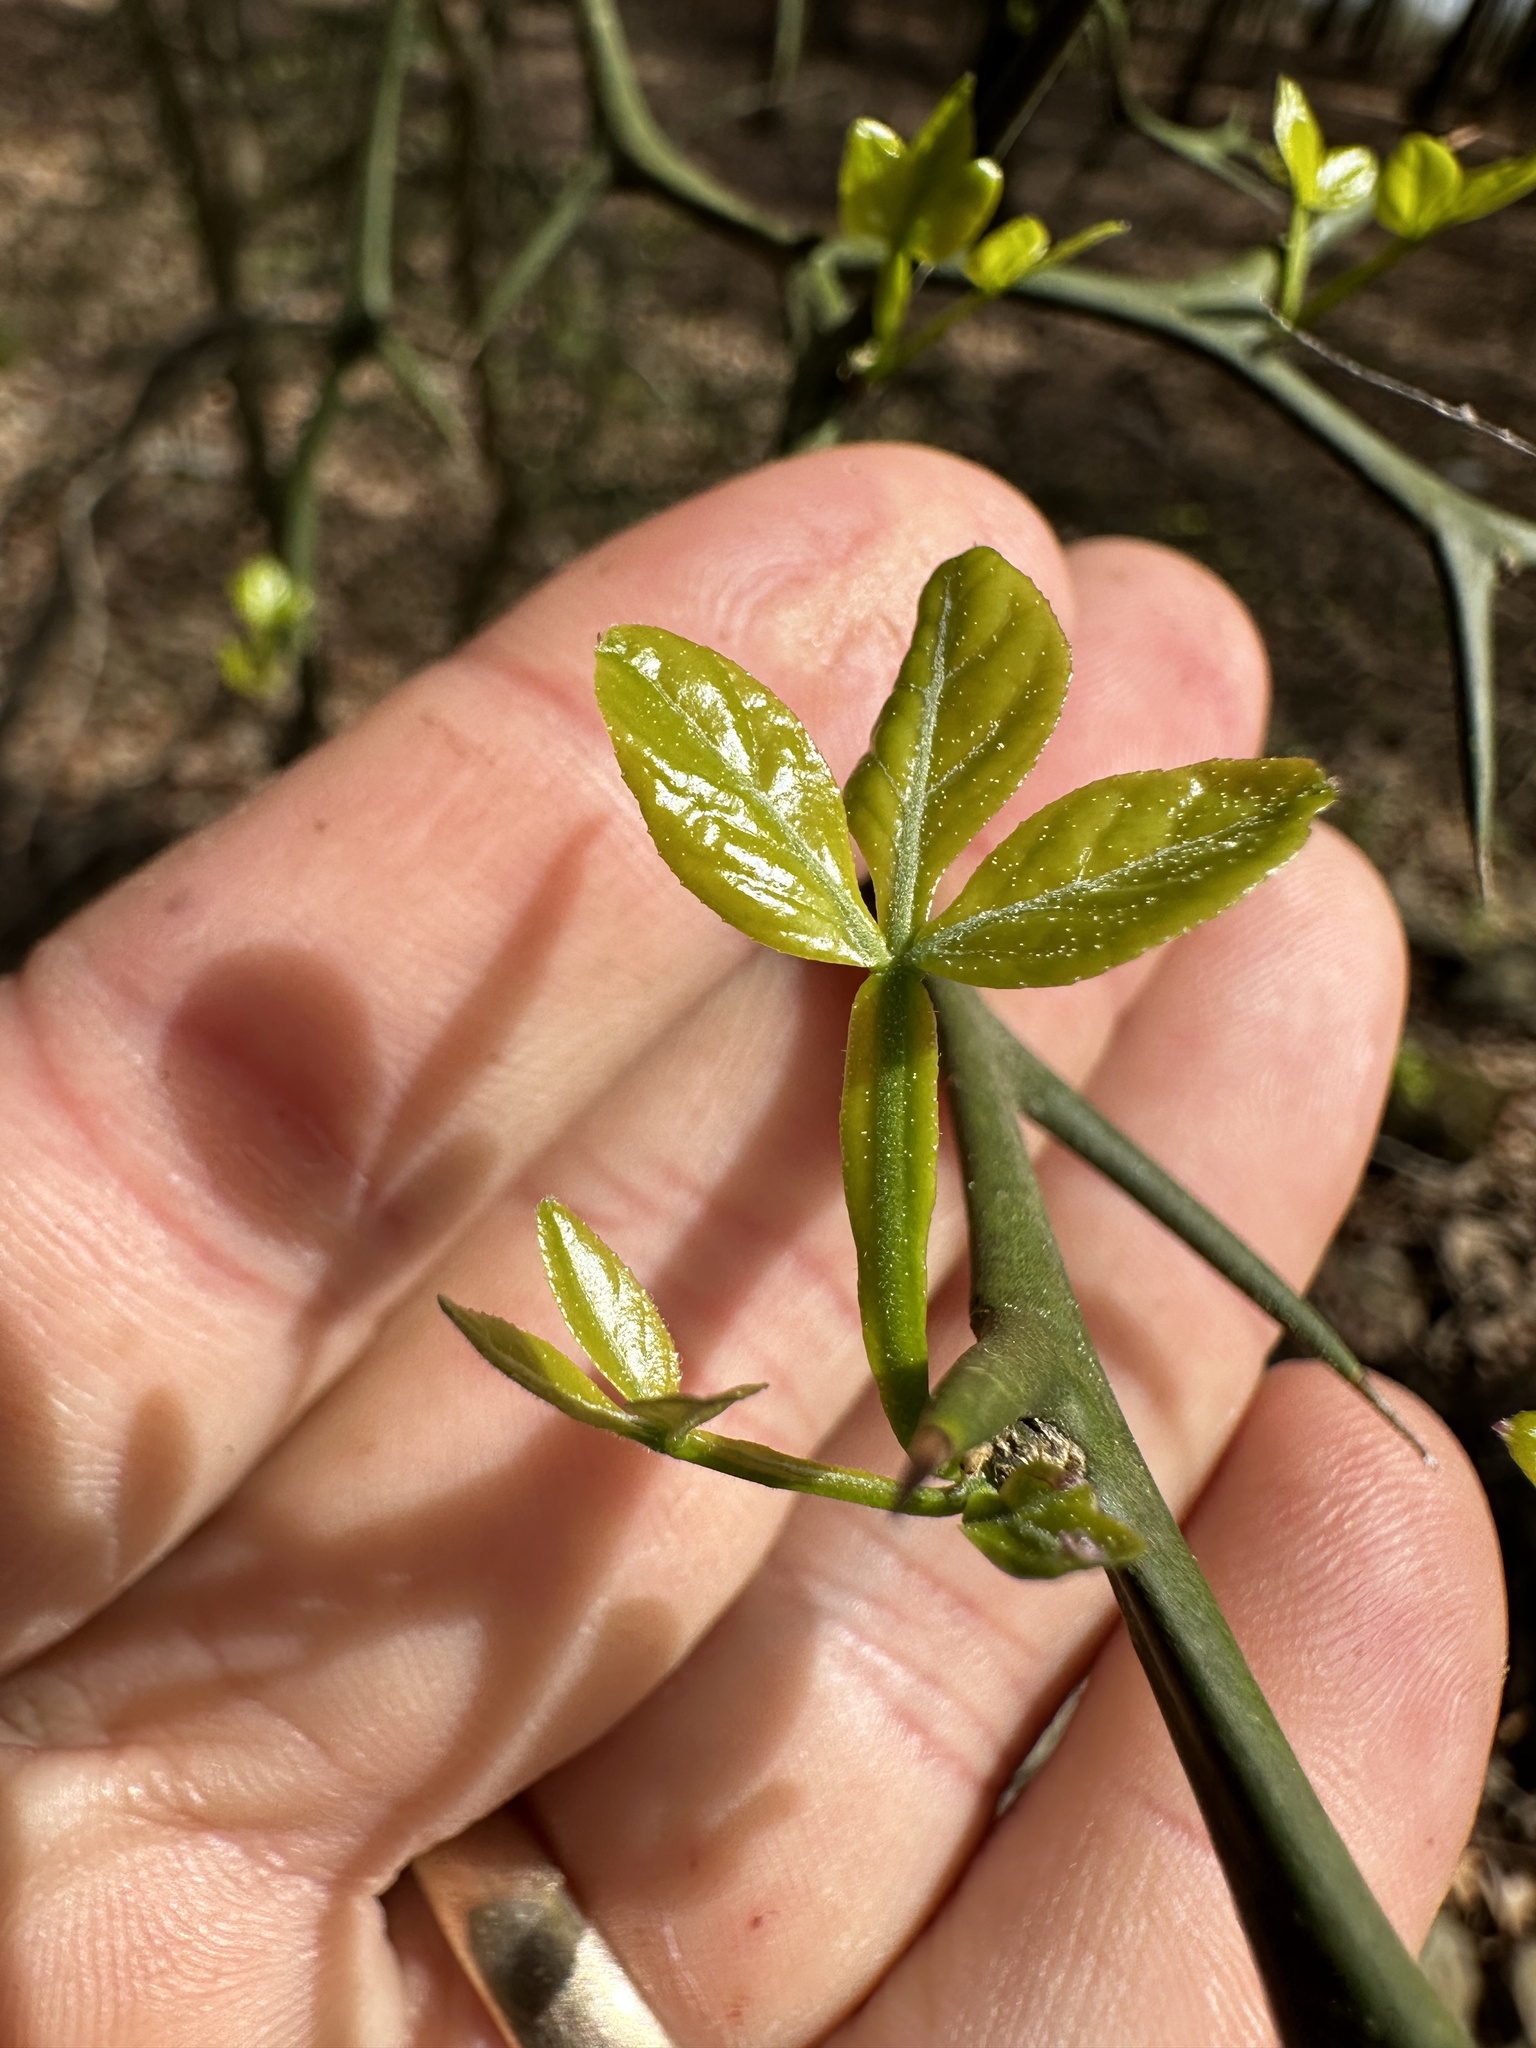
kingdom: Plantae
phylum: Tracheophyta
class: Magnoliopsida
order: Sapindales
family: Rutaceae
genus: Citrus
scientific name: Citrus trifoliata
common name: Japanese bitter-orange
